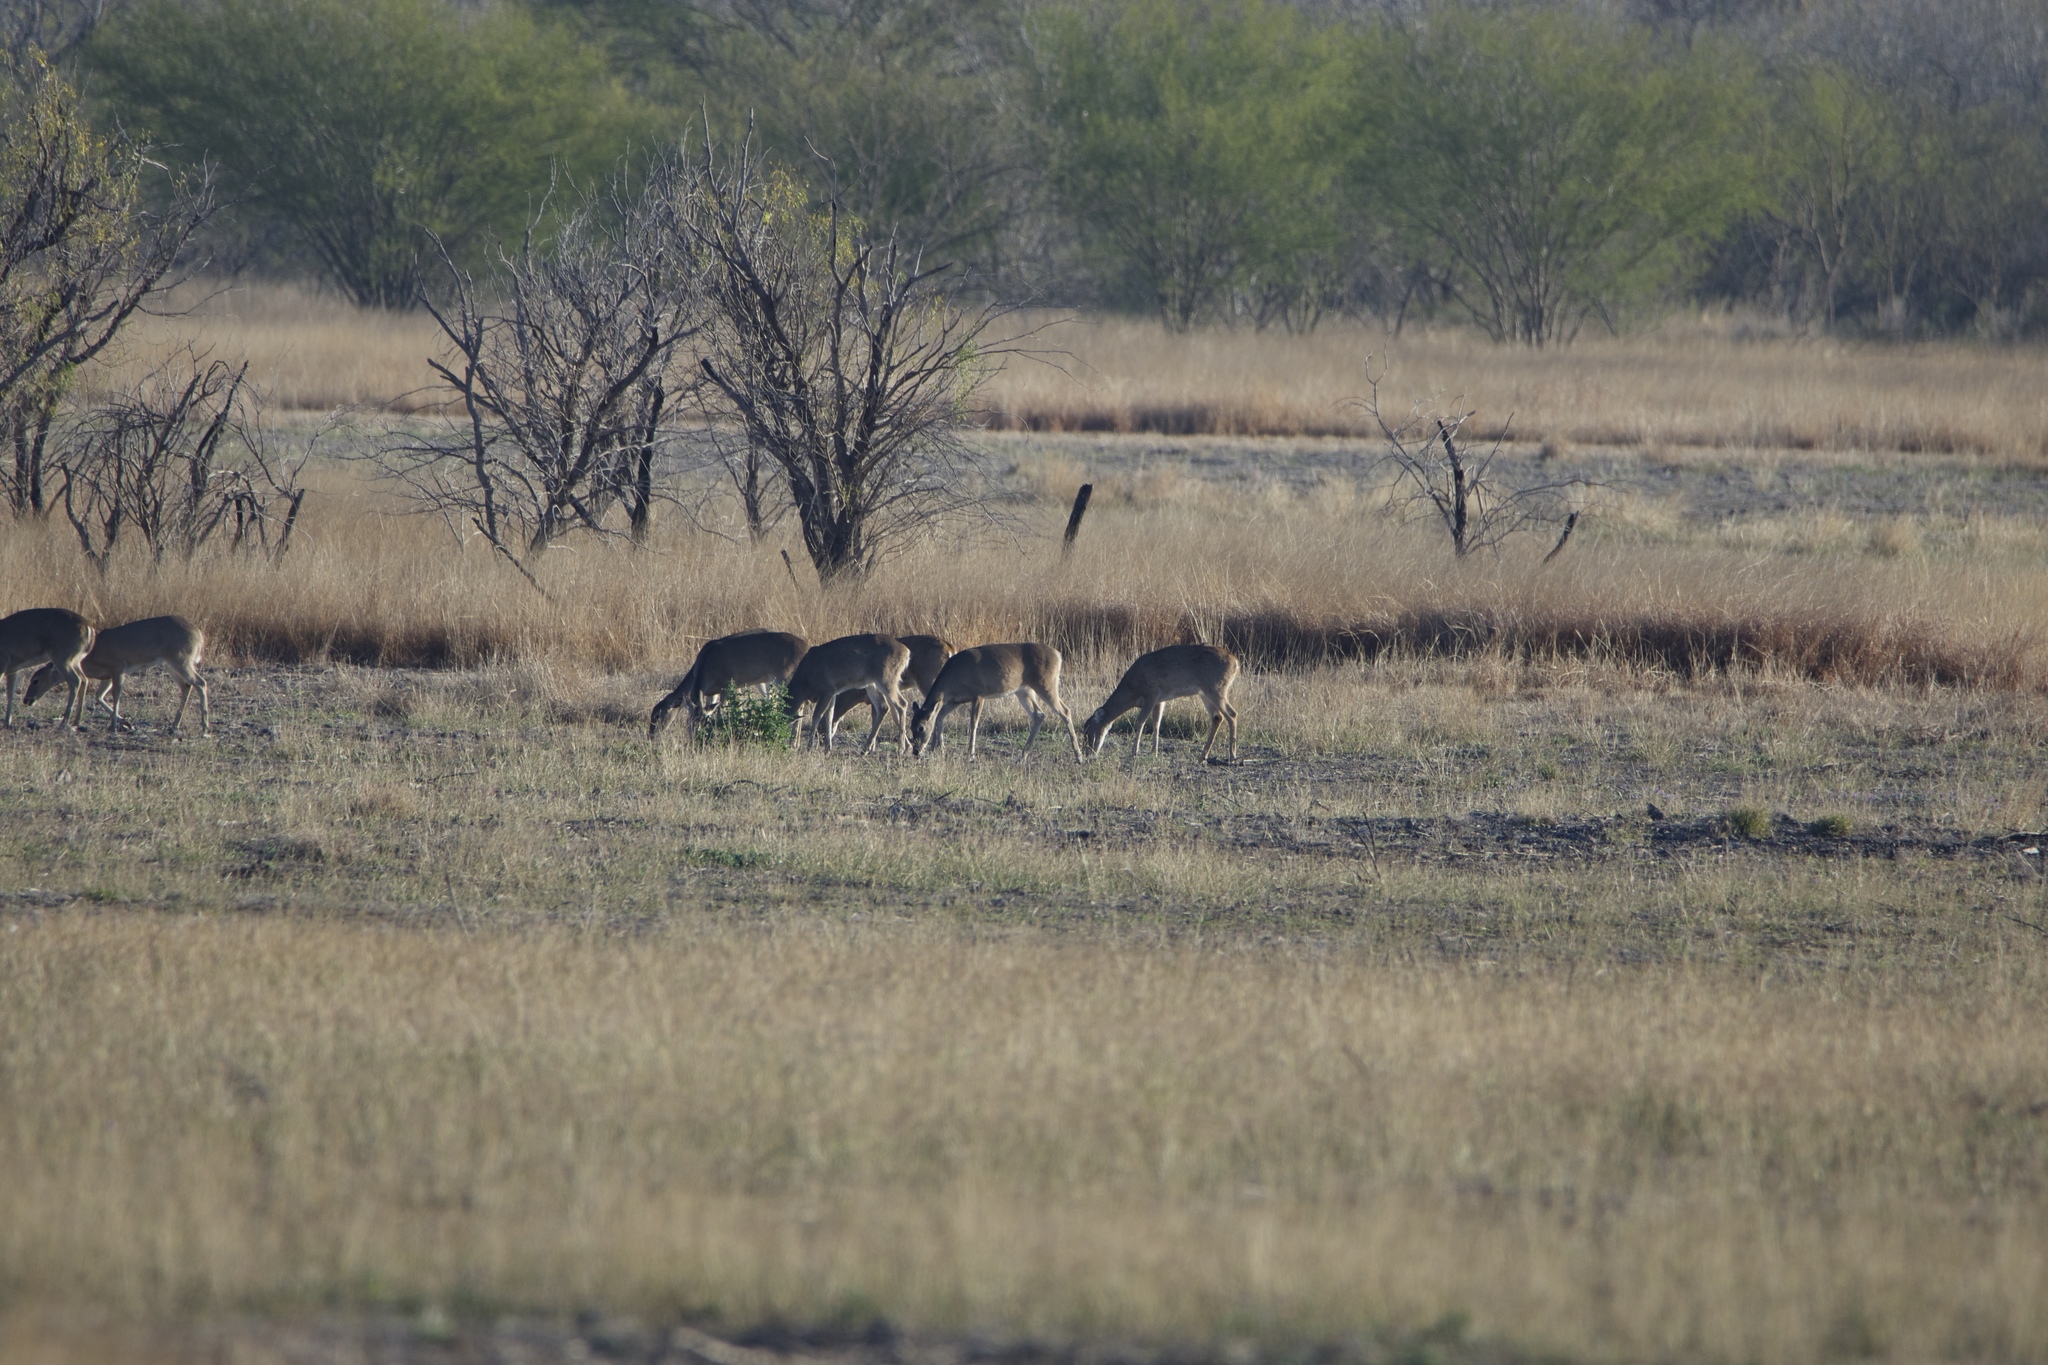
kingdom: Animalia
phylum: Chordata
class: Mammalia
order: Artiodactyla
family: Cervidae
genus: Odocoileus
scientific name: Odocoileus virginianus
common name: White-tailed deer
